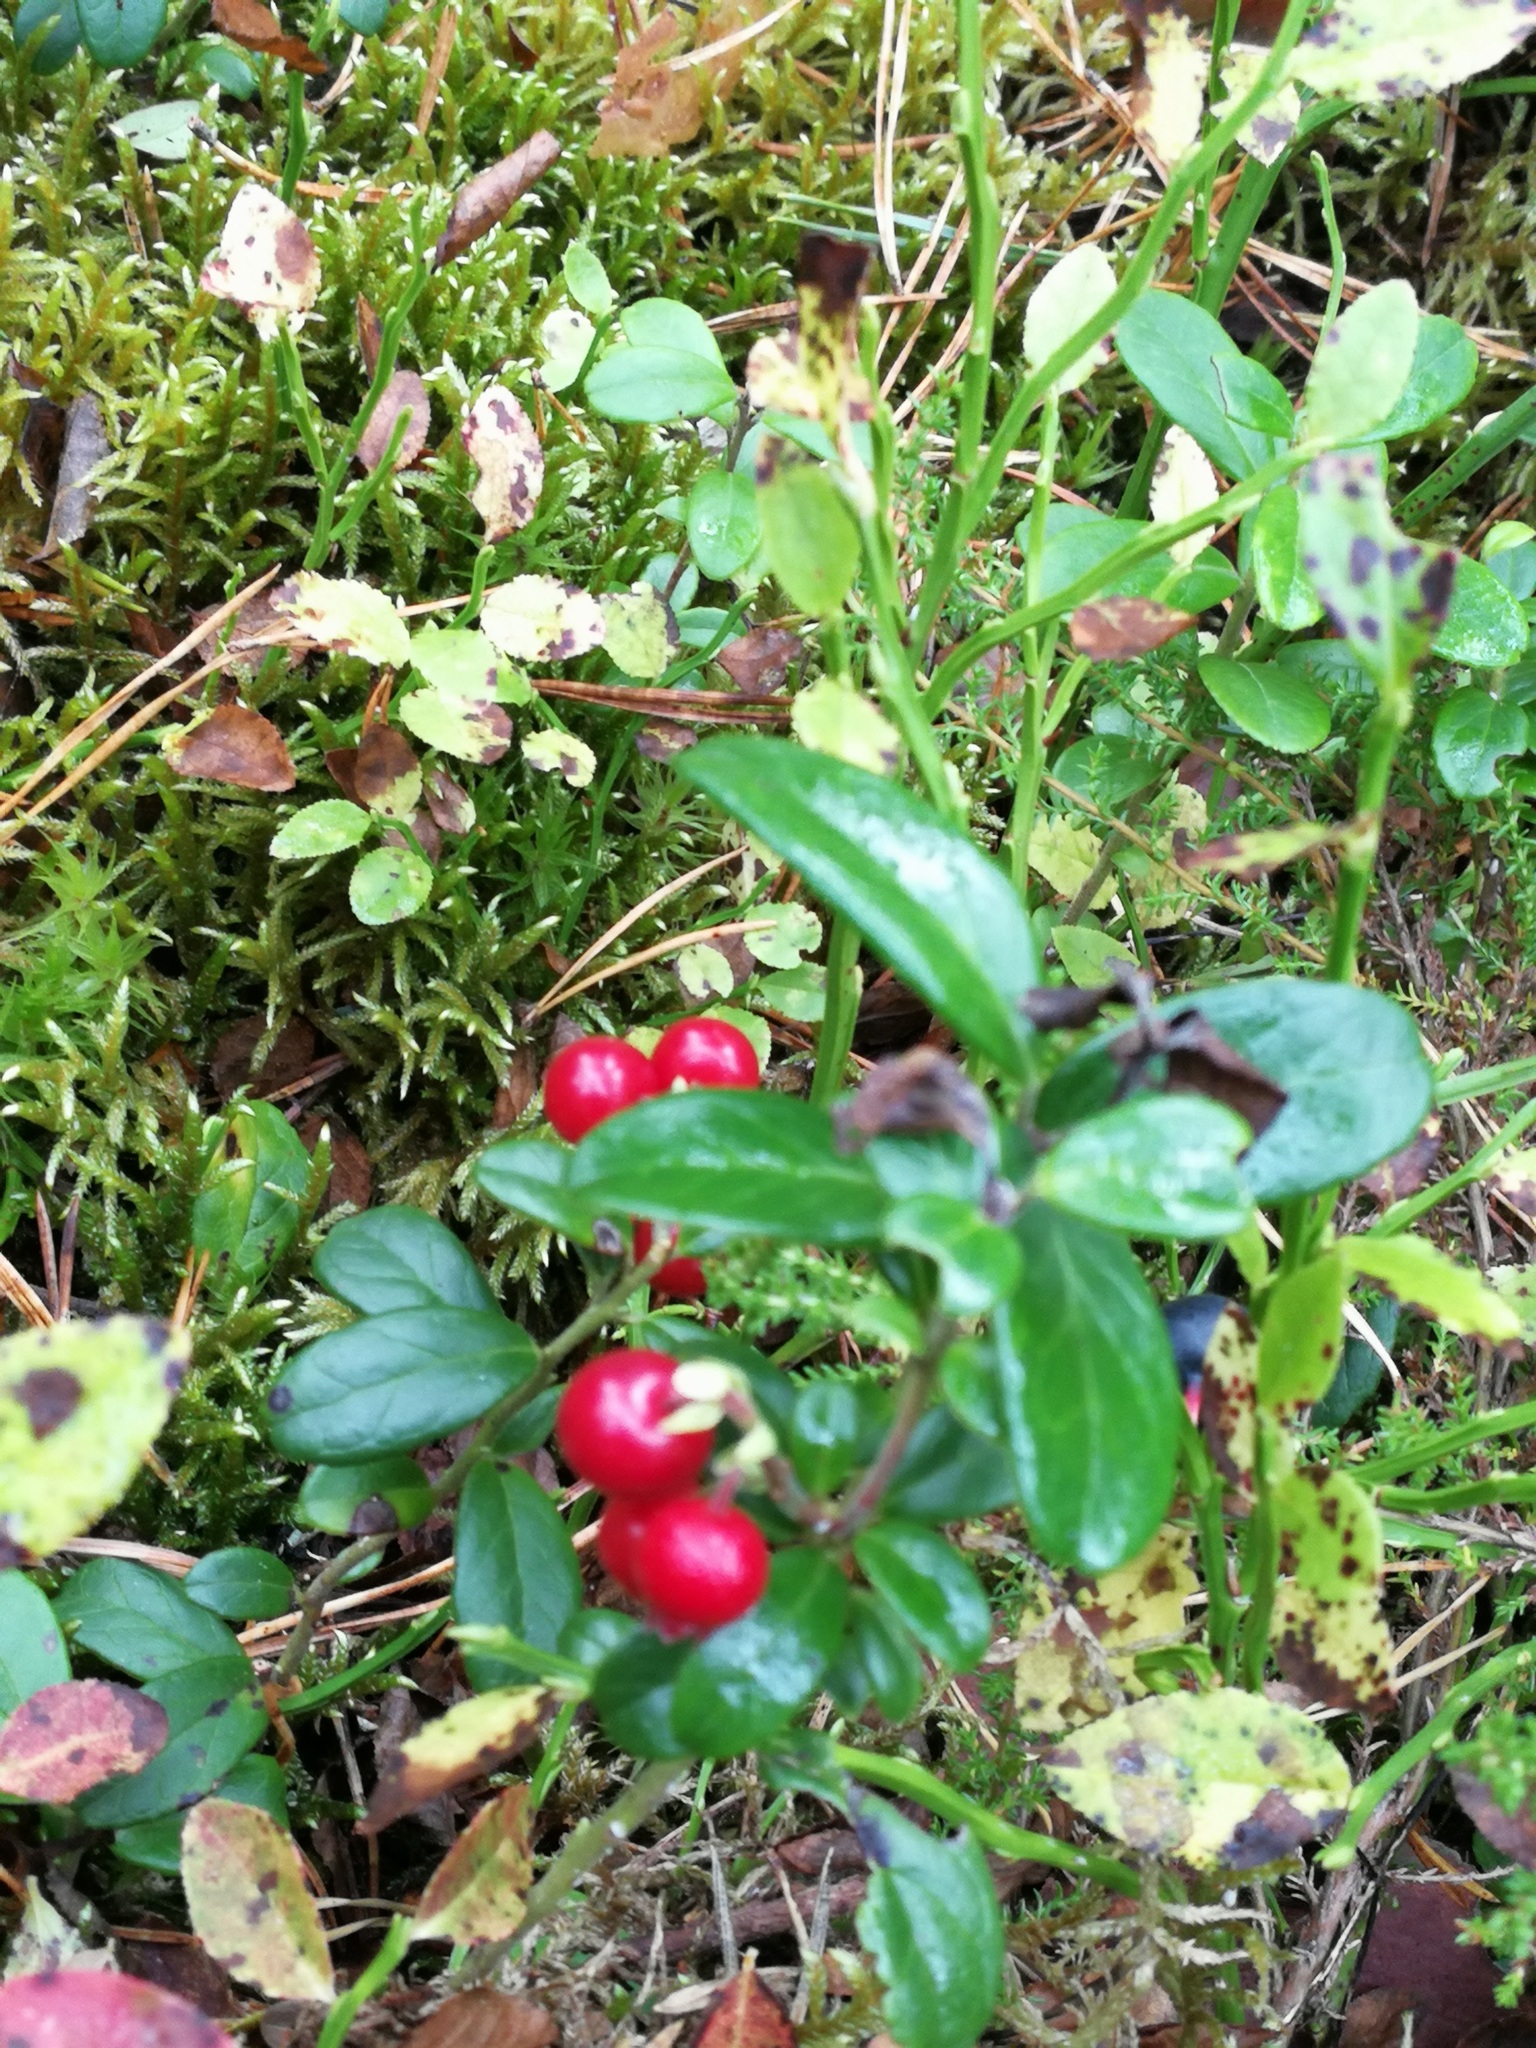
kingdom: Plantae
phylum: Tracheophyta
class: Magnoliopsida
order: Ericales
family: Ericaceae
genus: Vaccinium
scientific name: Vaccinium vitis-idaea
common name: Cowberry
